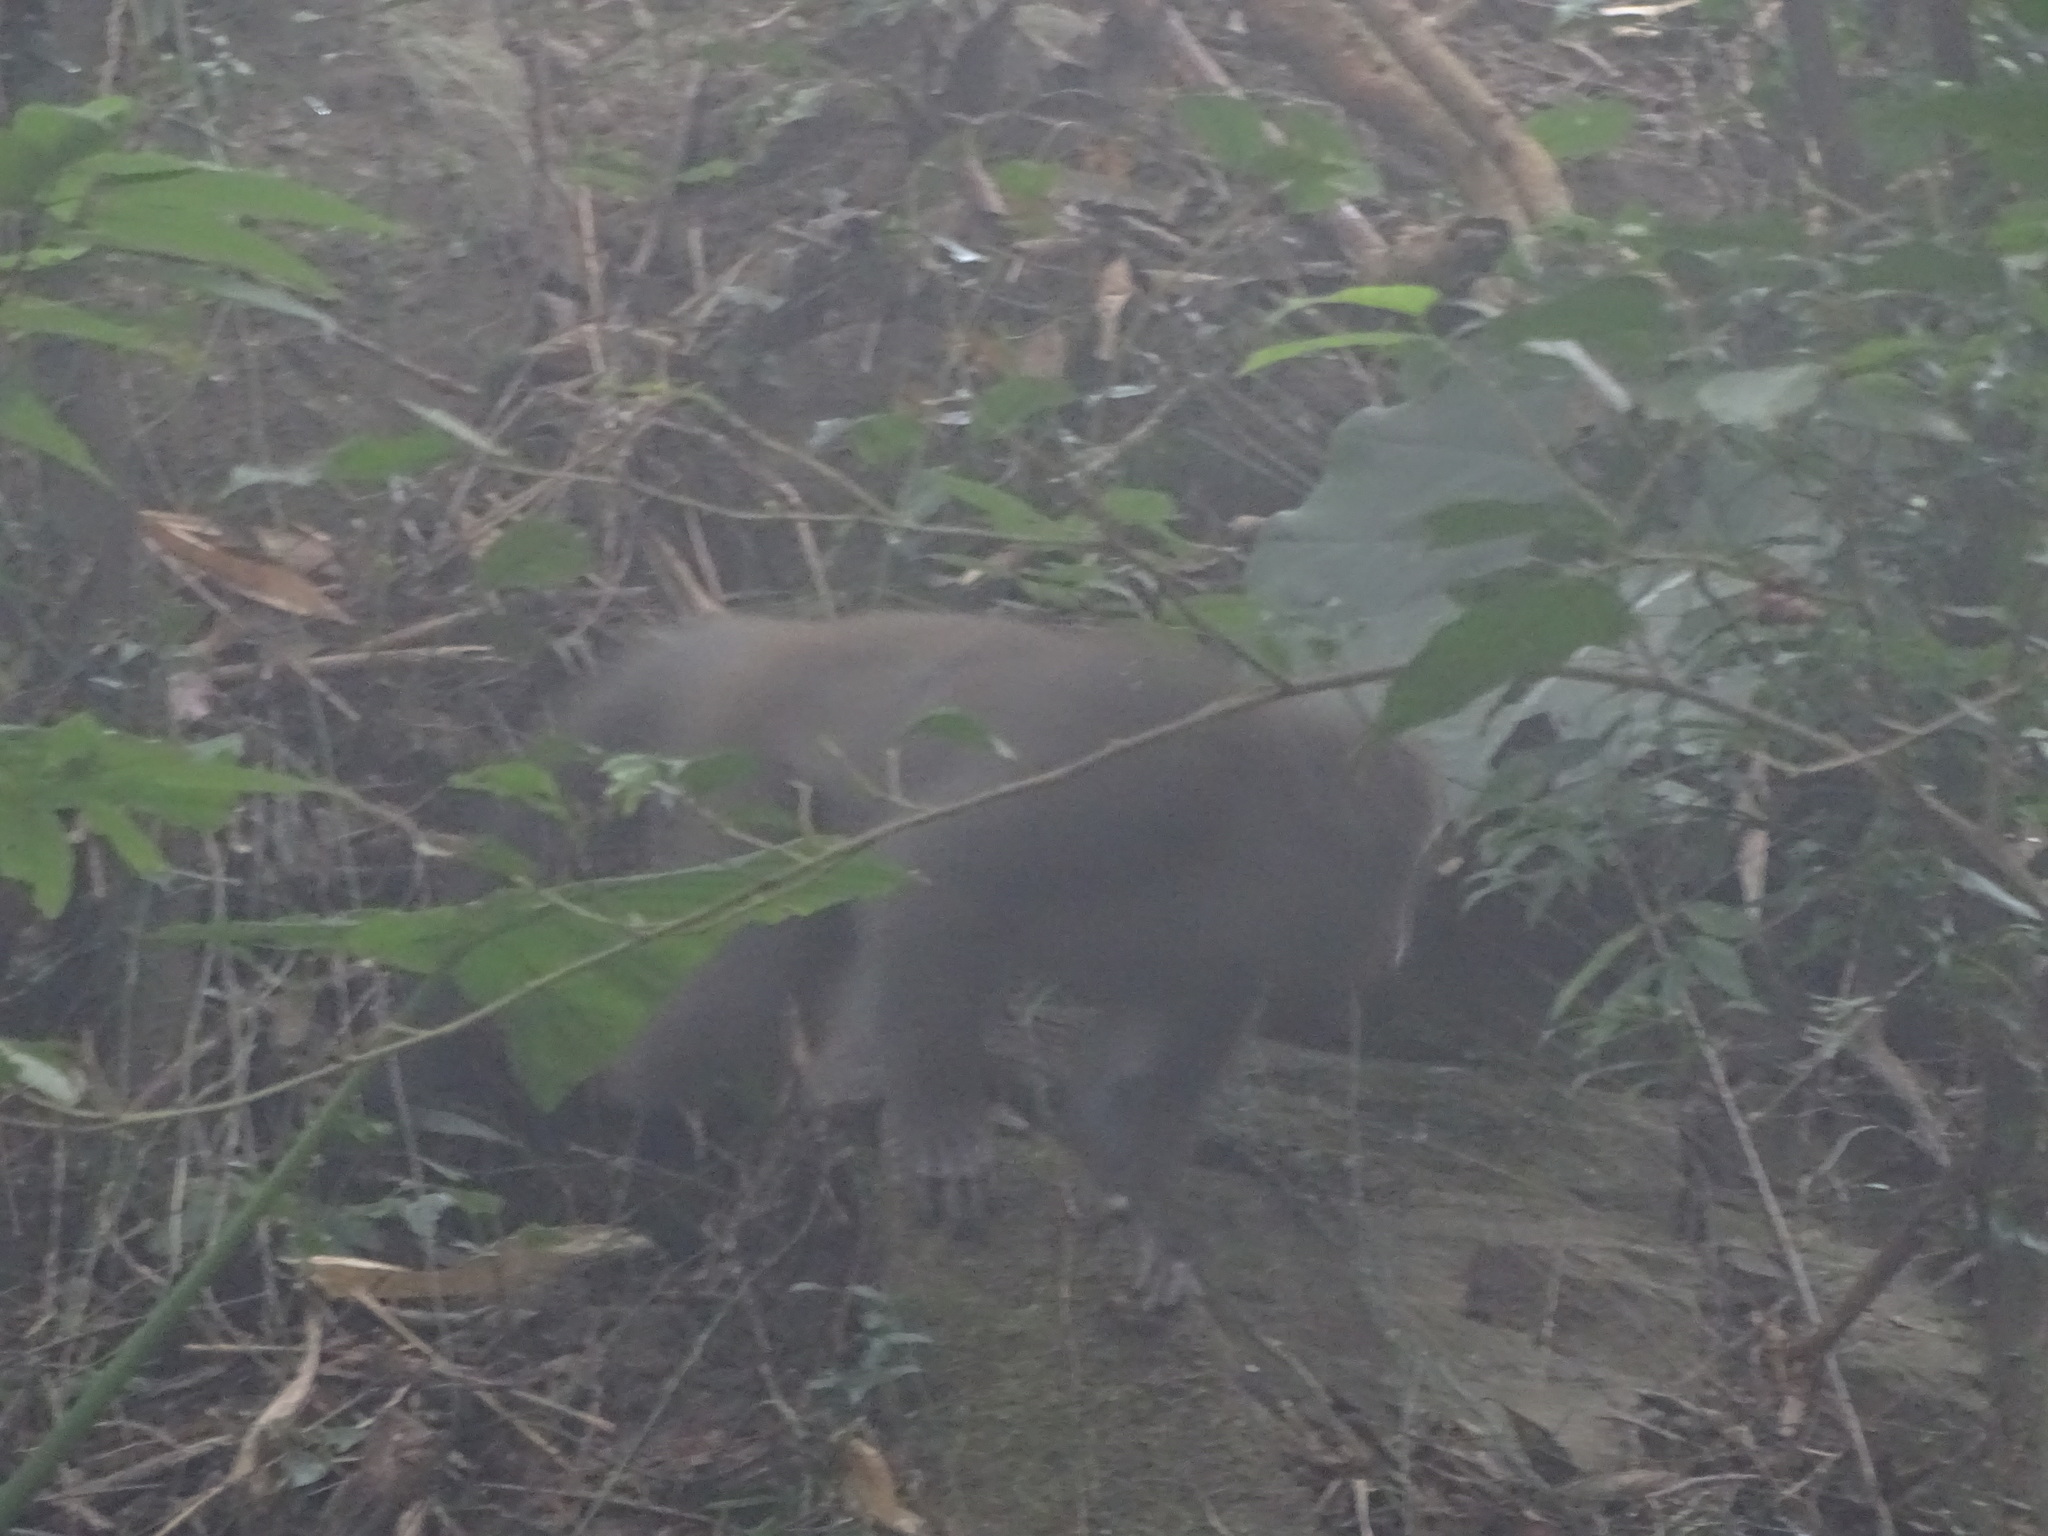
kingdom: Animalia
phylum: Chordata
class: Mammalia
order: Primates
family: Cercopithecidae
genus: Macaca
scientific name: Macaca cyclopis
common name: Formosan rock macaque
